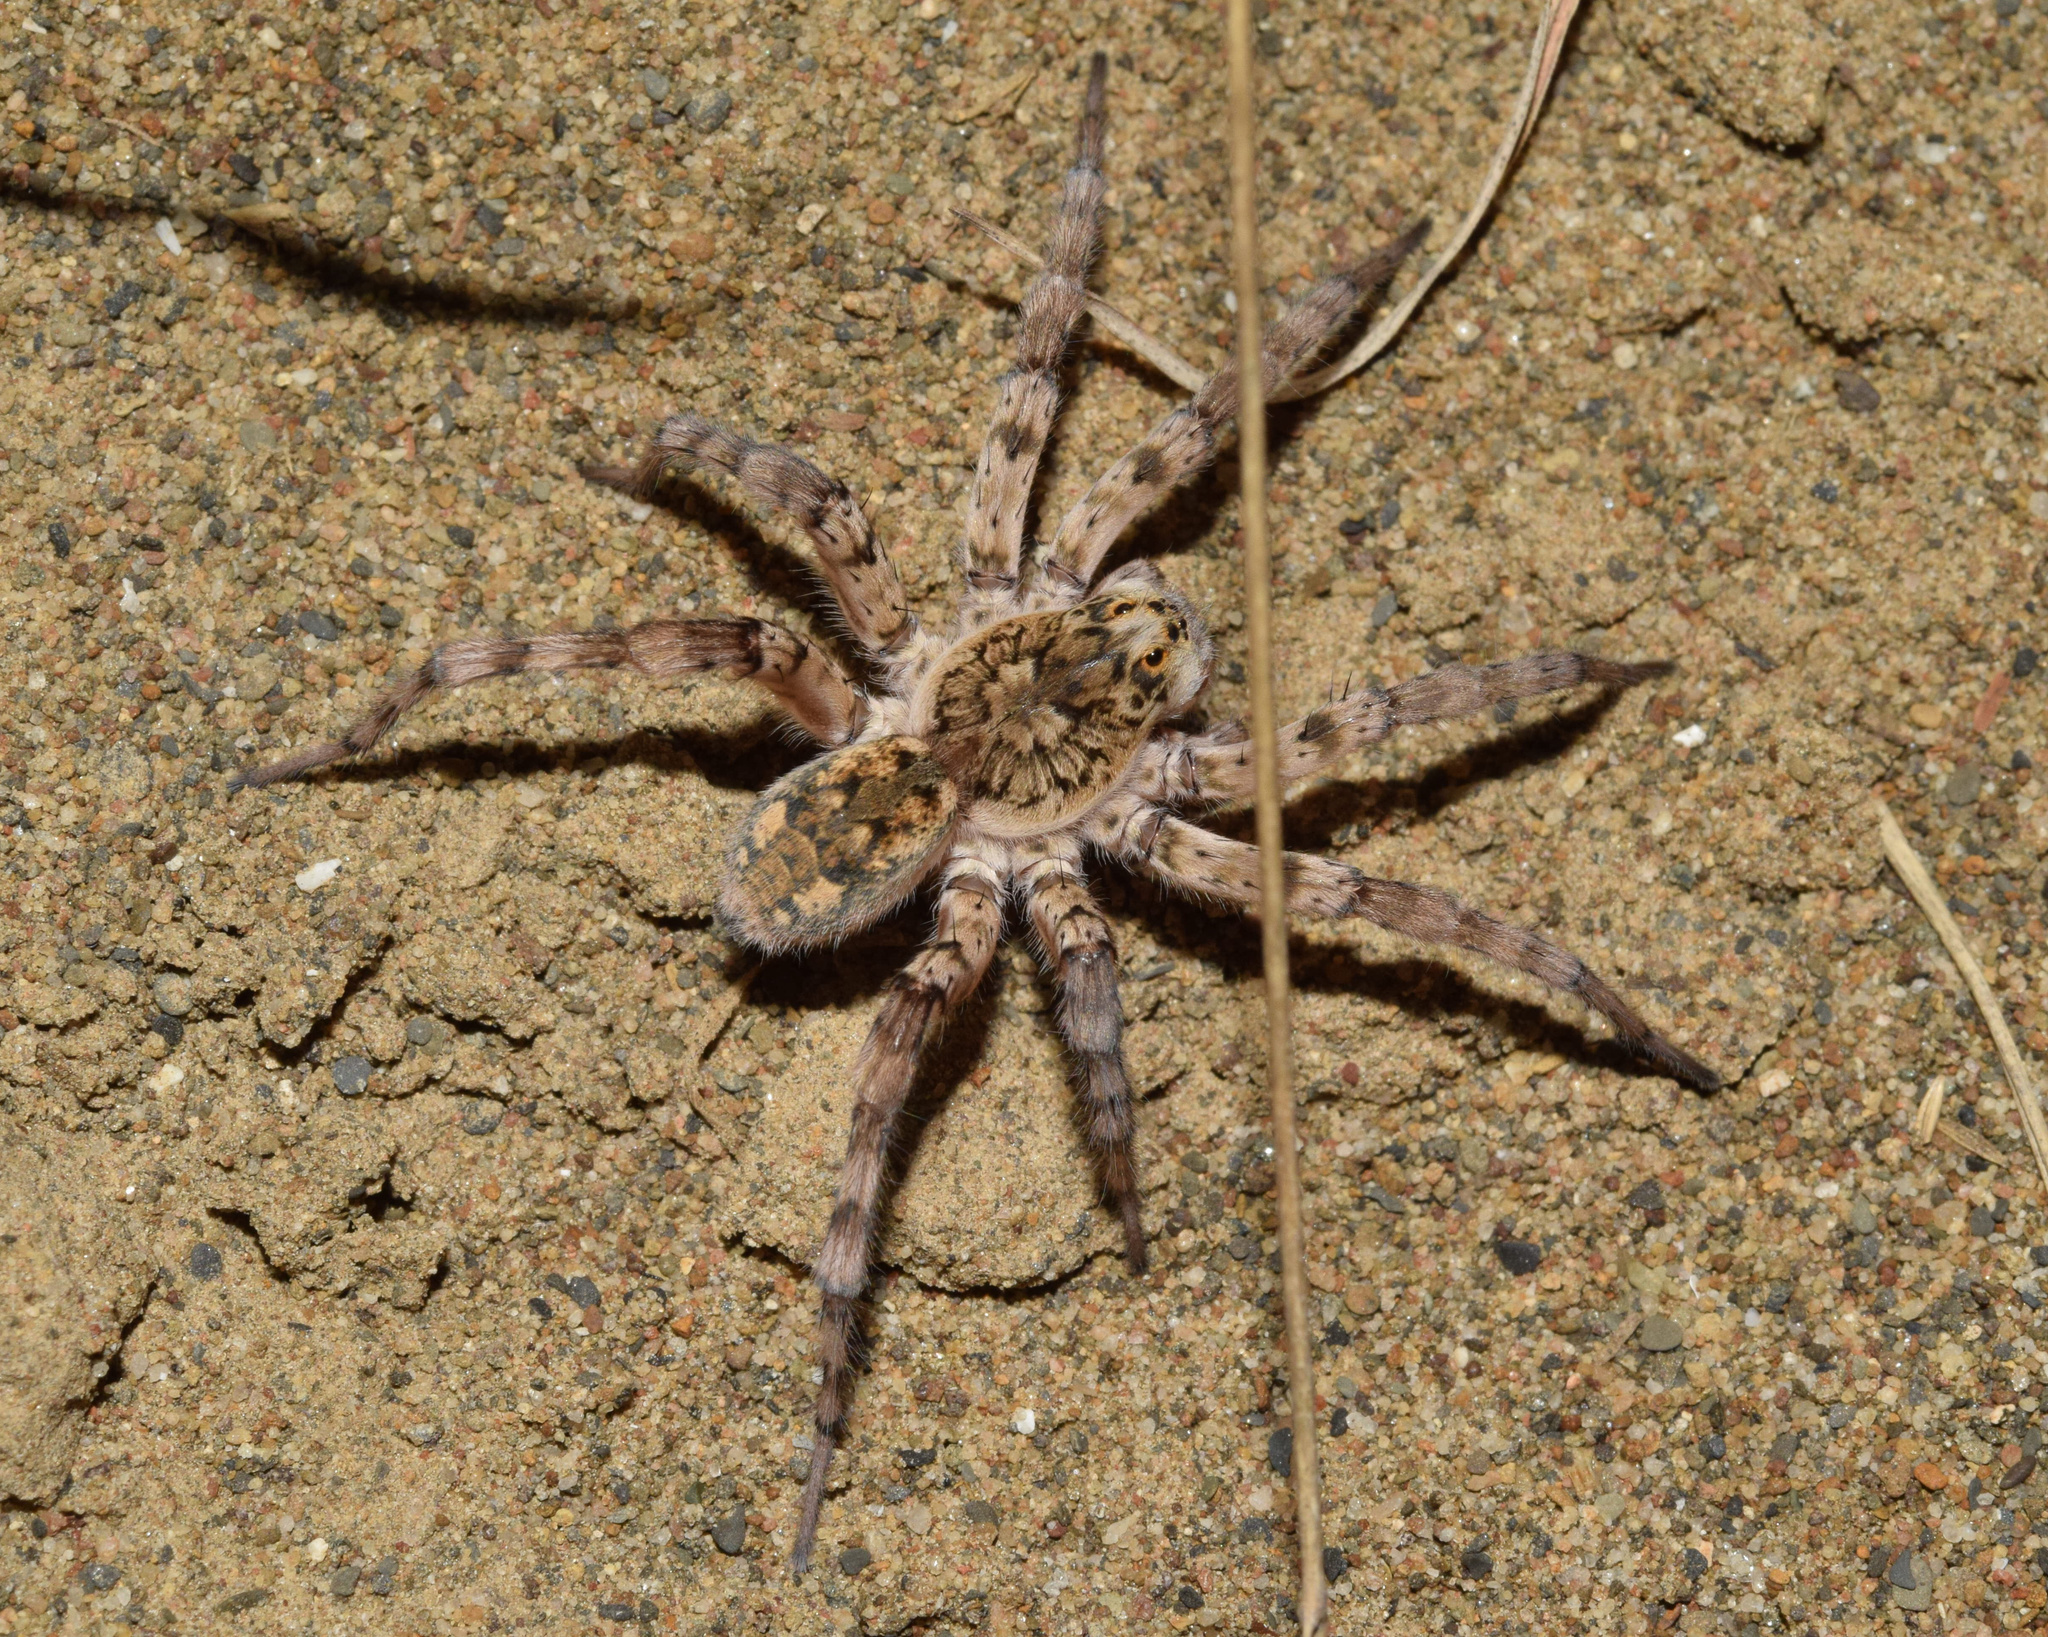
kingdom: Animalia
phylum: Arthropoda
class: Arachnida
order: Araneae
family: Lycosidae
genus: Ocyale
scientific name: Ocyale guttata
